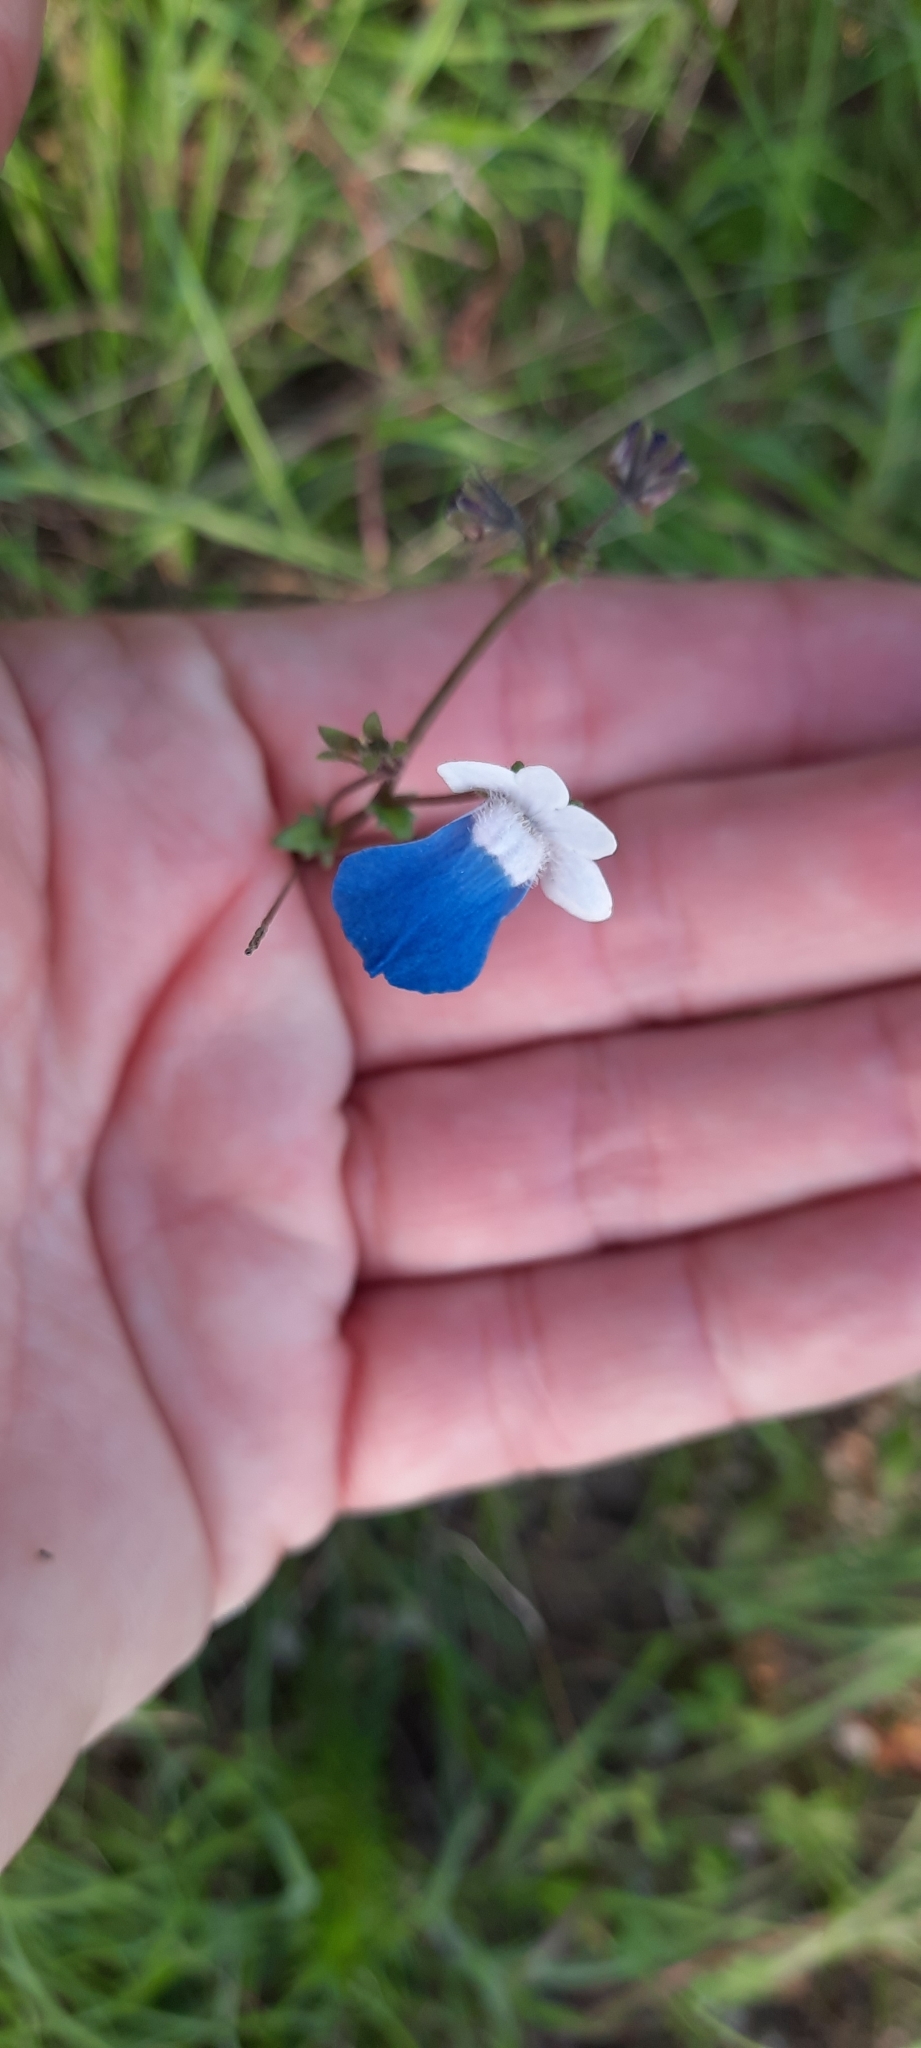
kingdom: Plantae
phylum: Tracheophyta
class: Magnoliopsida
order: Lamiales
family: Scrophulariaceae
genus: Nemesia
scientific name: Nemesia barbata
